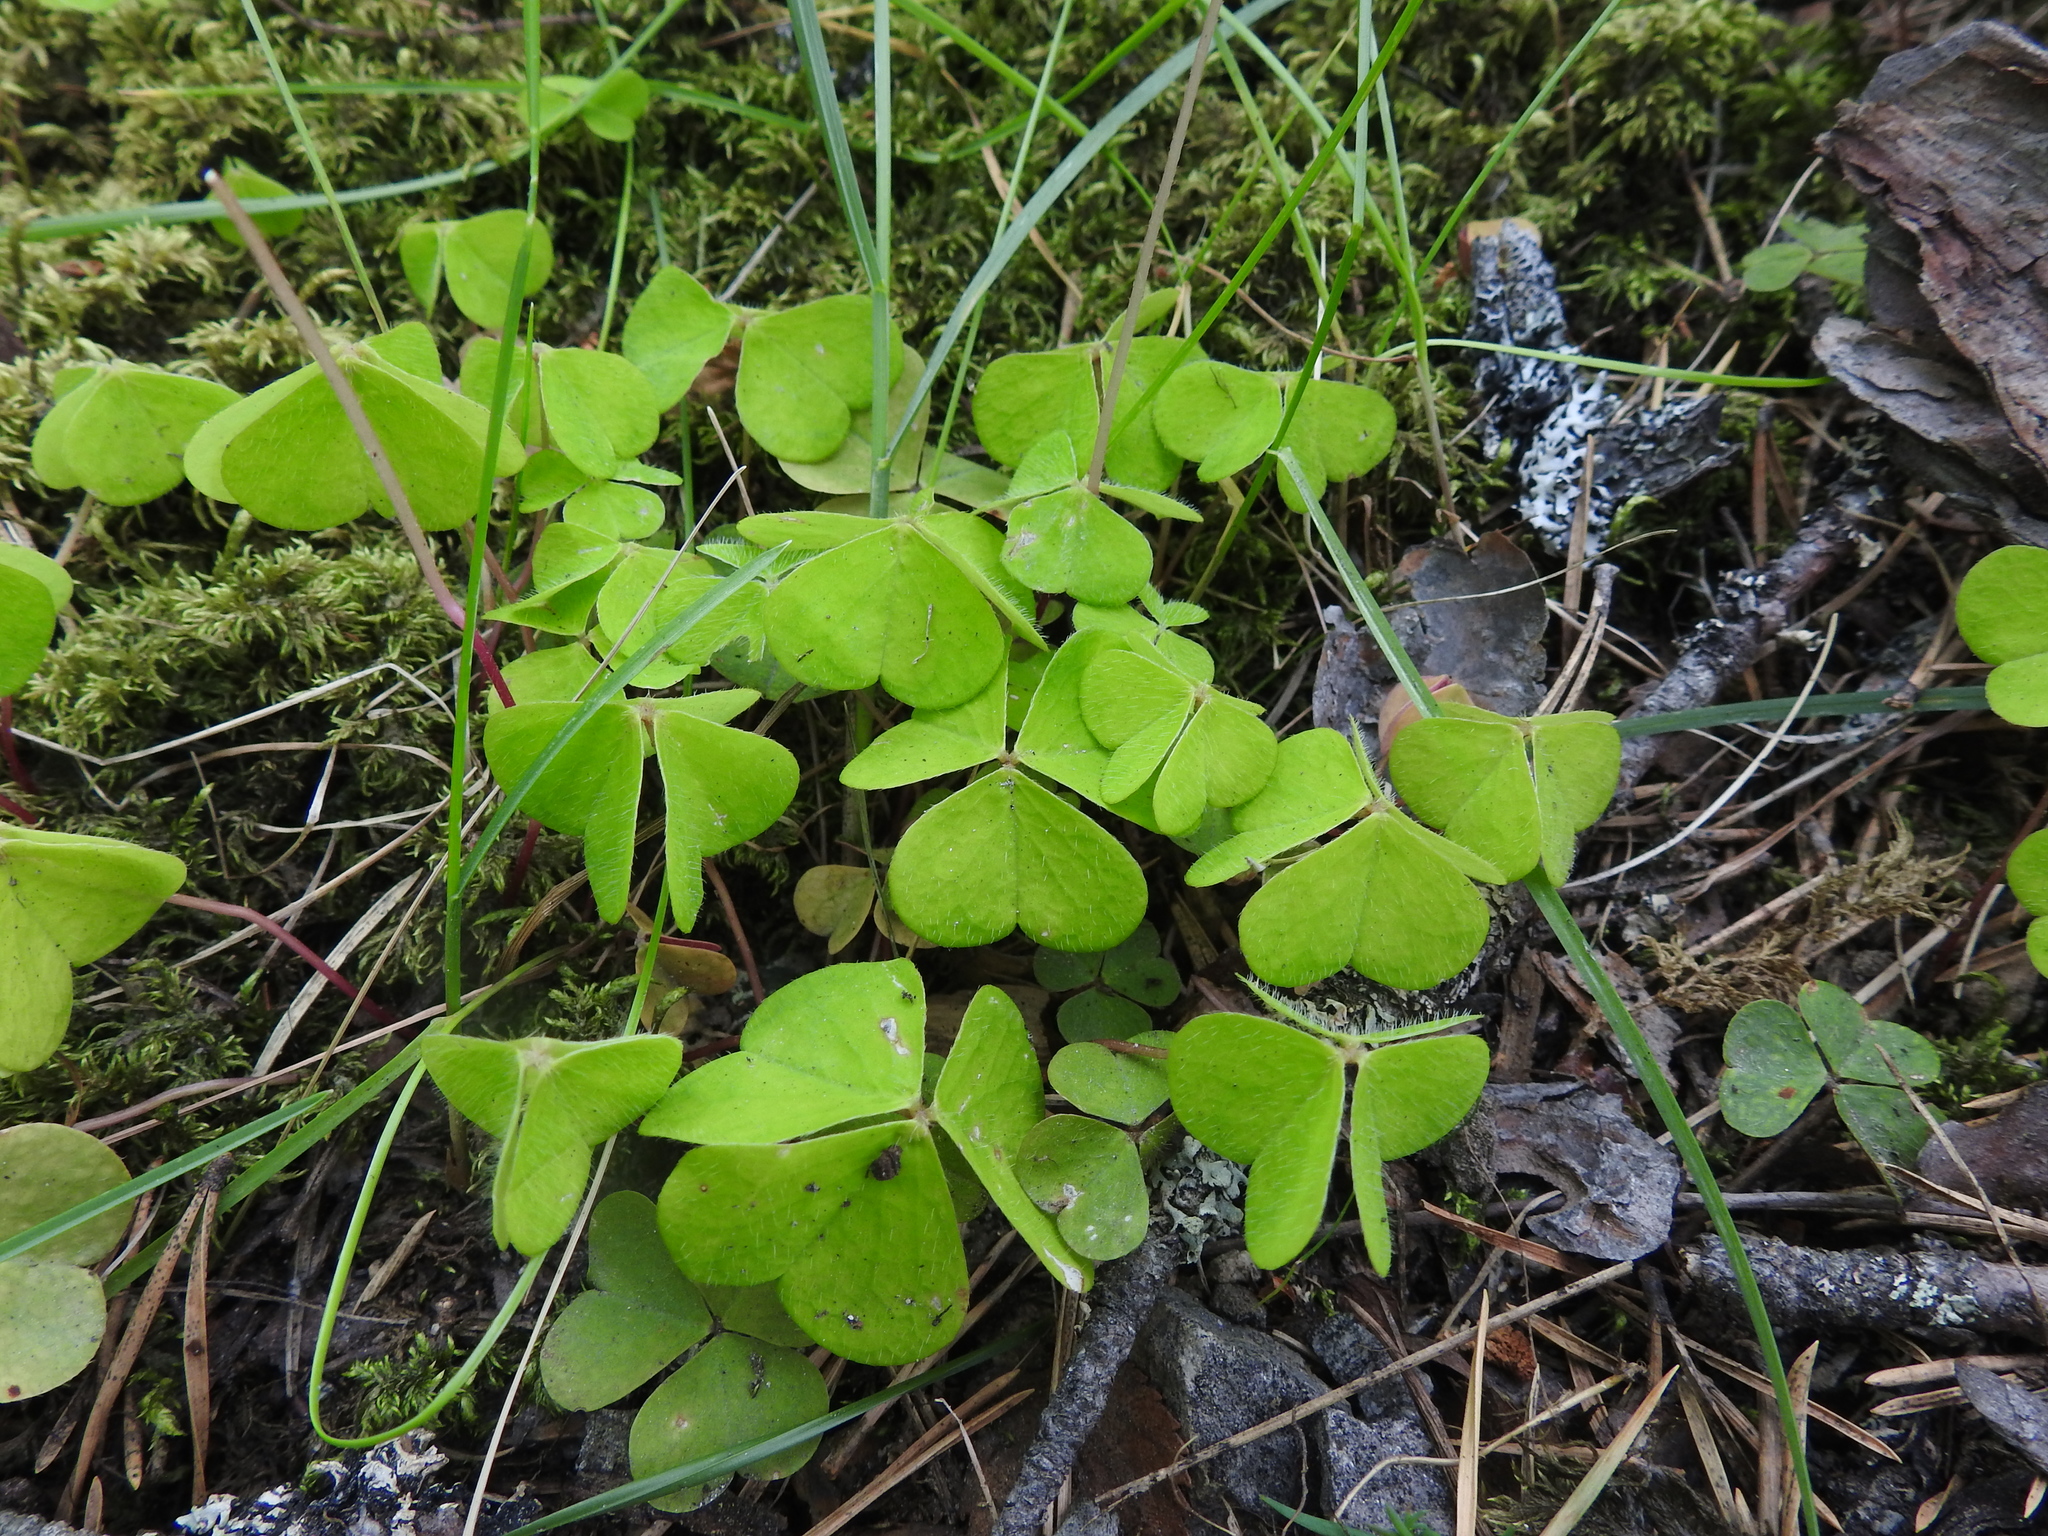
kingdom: Plantae
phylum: Tracheophyta
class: Magnoliopsida
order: Oxalidales
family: Oxalidaceae
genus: Oxalis
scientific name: Oxalis acetosella
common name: Wood-sorrel
